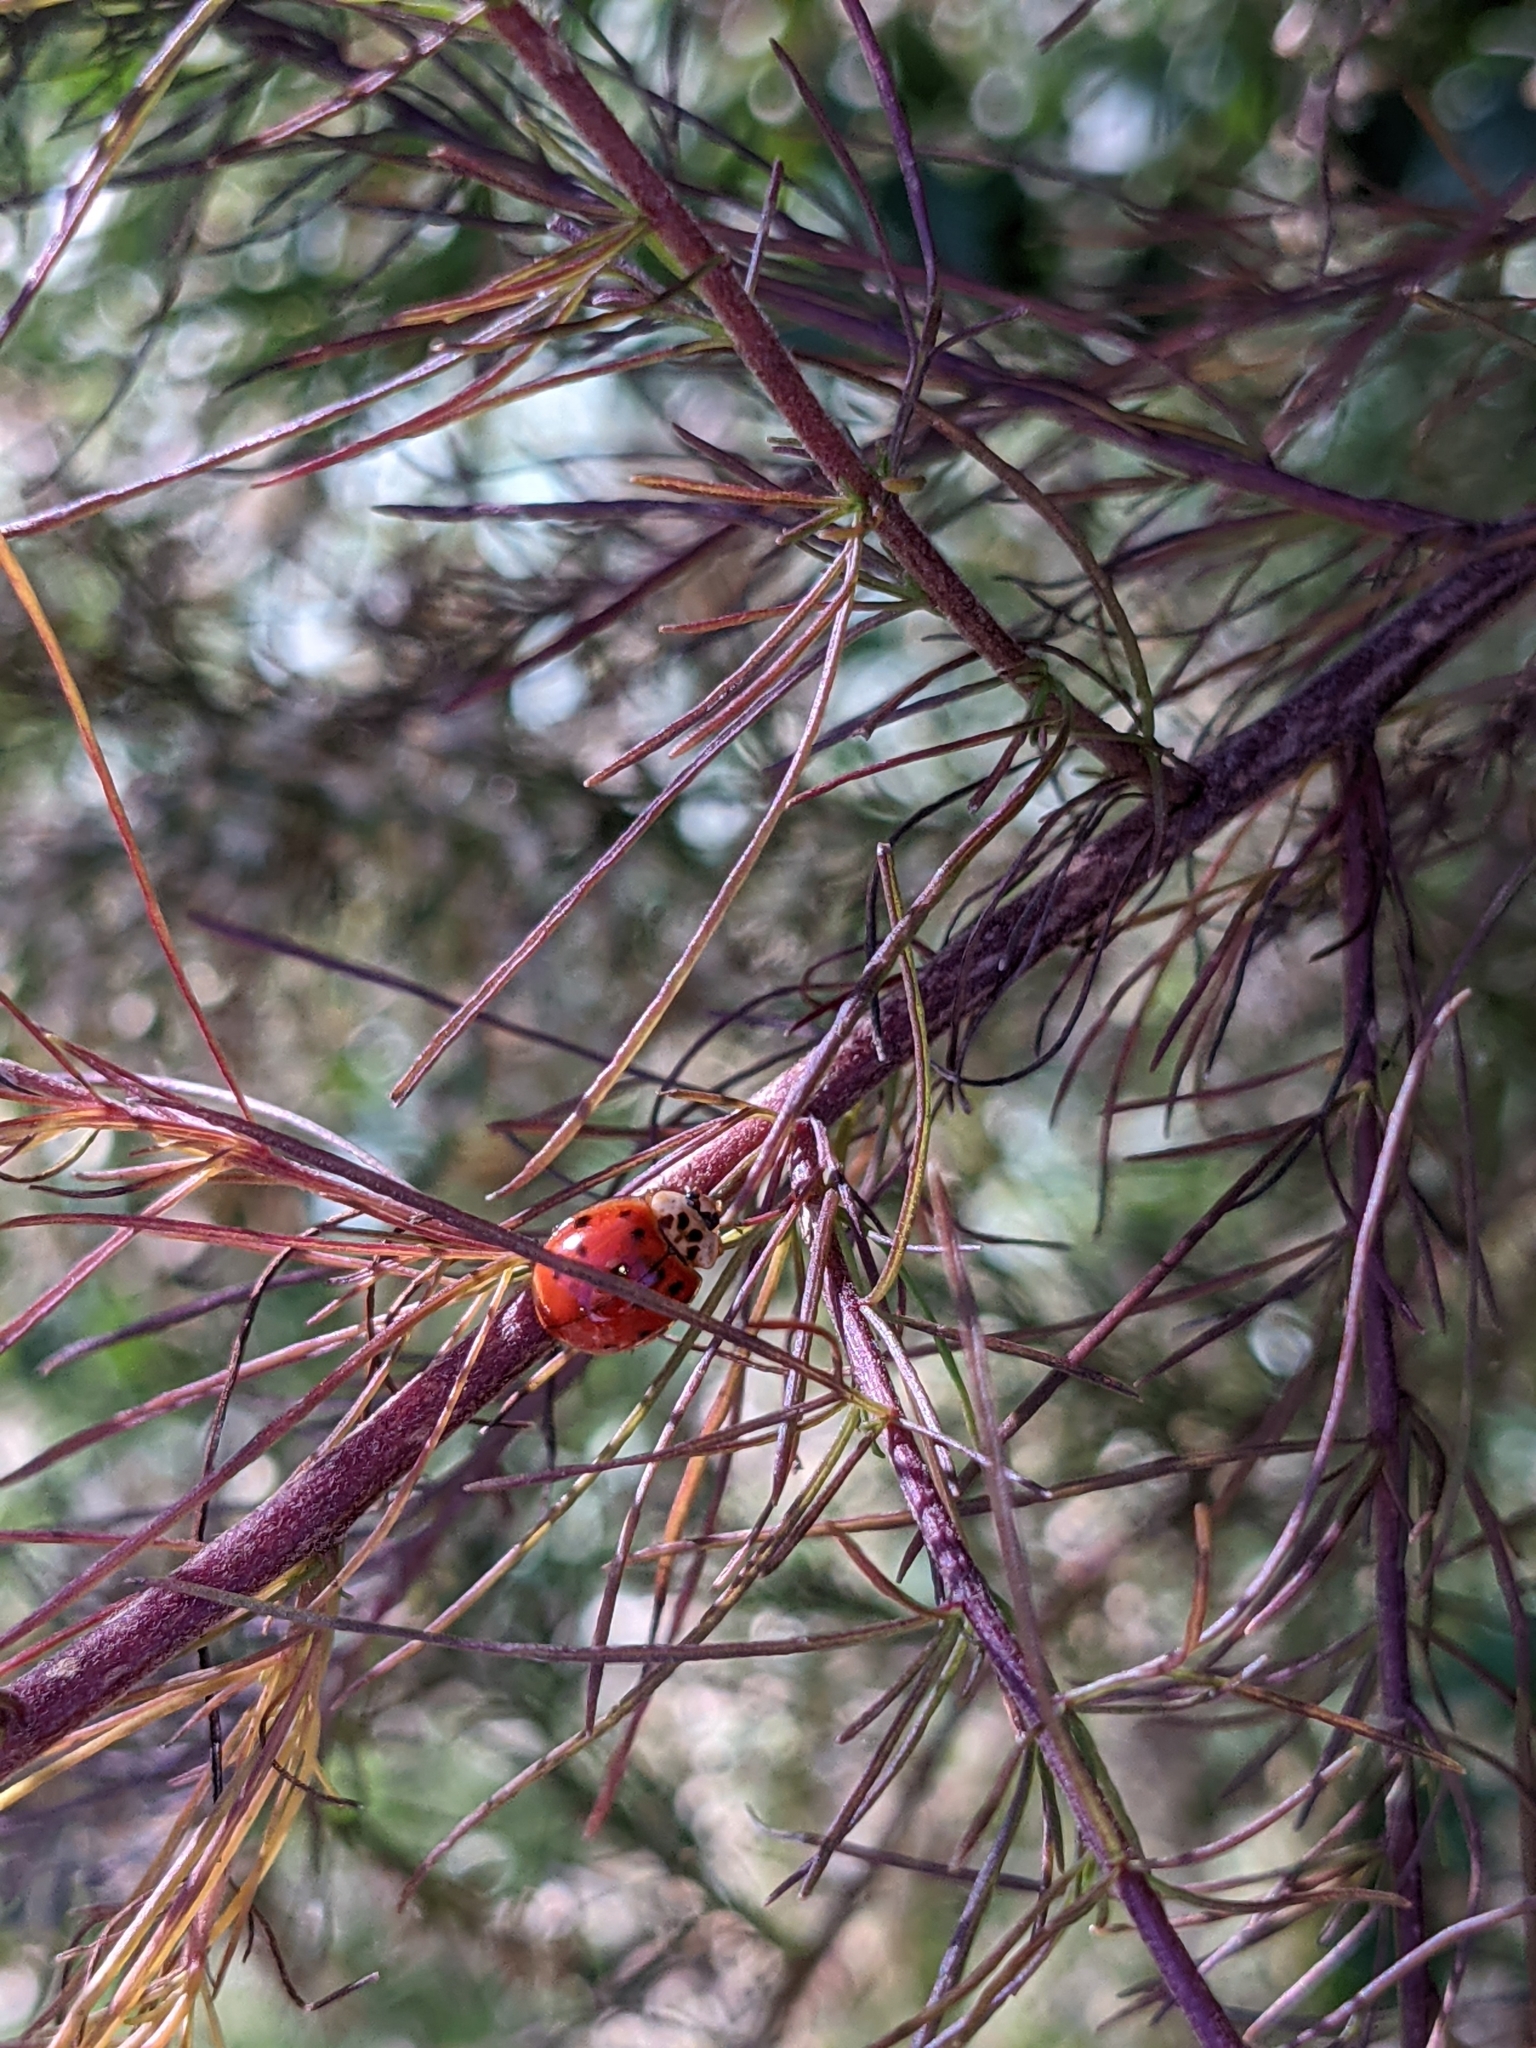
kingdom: Animalia
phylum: Arthropoda
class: Insecta
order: Coleoptera
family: Coccinellidae
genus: Harmonia
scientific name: Harmonia axyridis
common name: Harlequin ladybird
